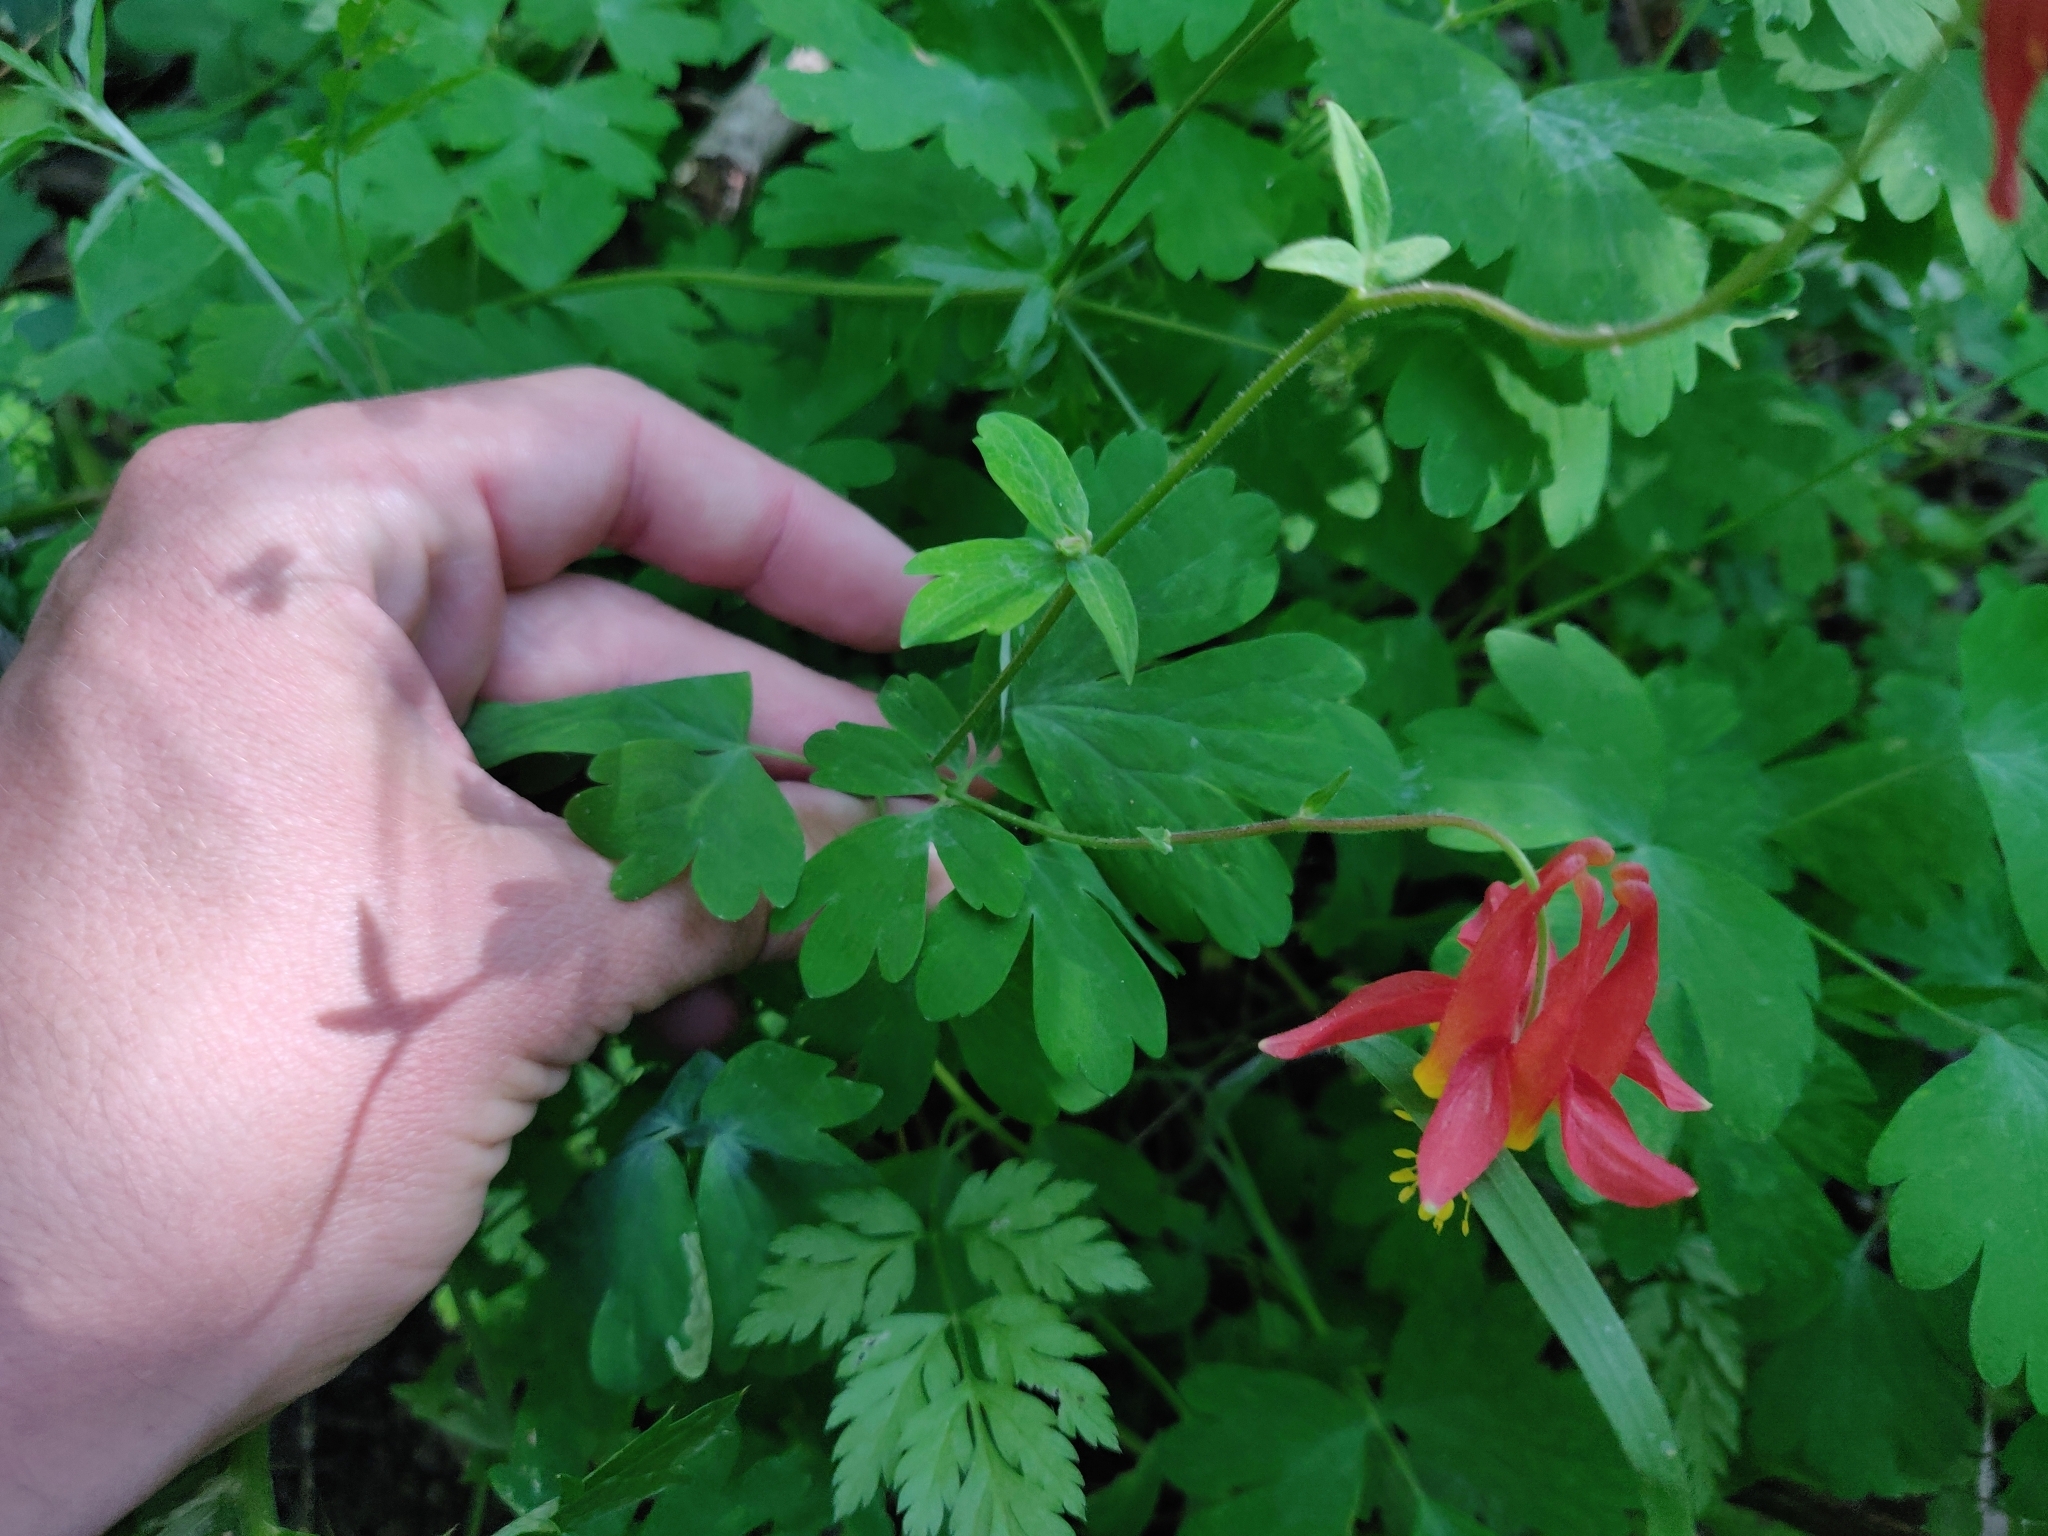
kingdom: Plantae
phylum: Tracheophyta
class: Magnoliopsida
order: Ranunculales
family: Ranunculaceae
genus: Aquilegia
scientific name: Aquilegia formosa
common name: Sitka columbine
